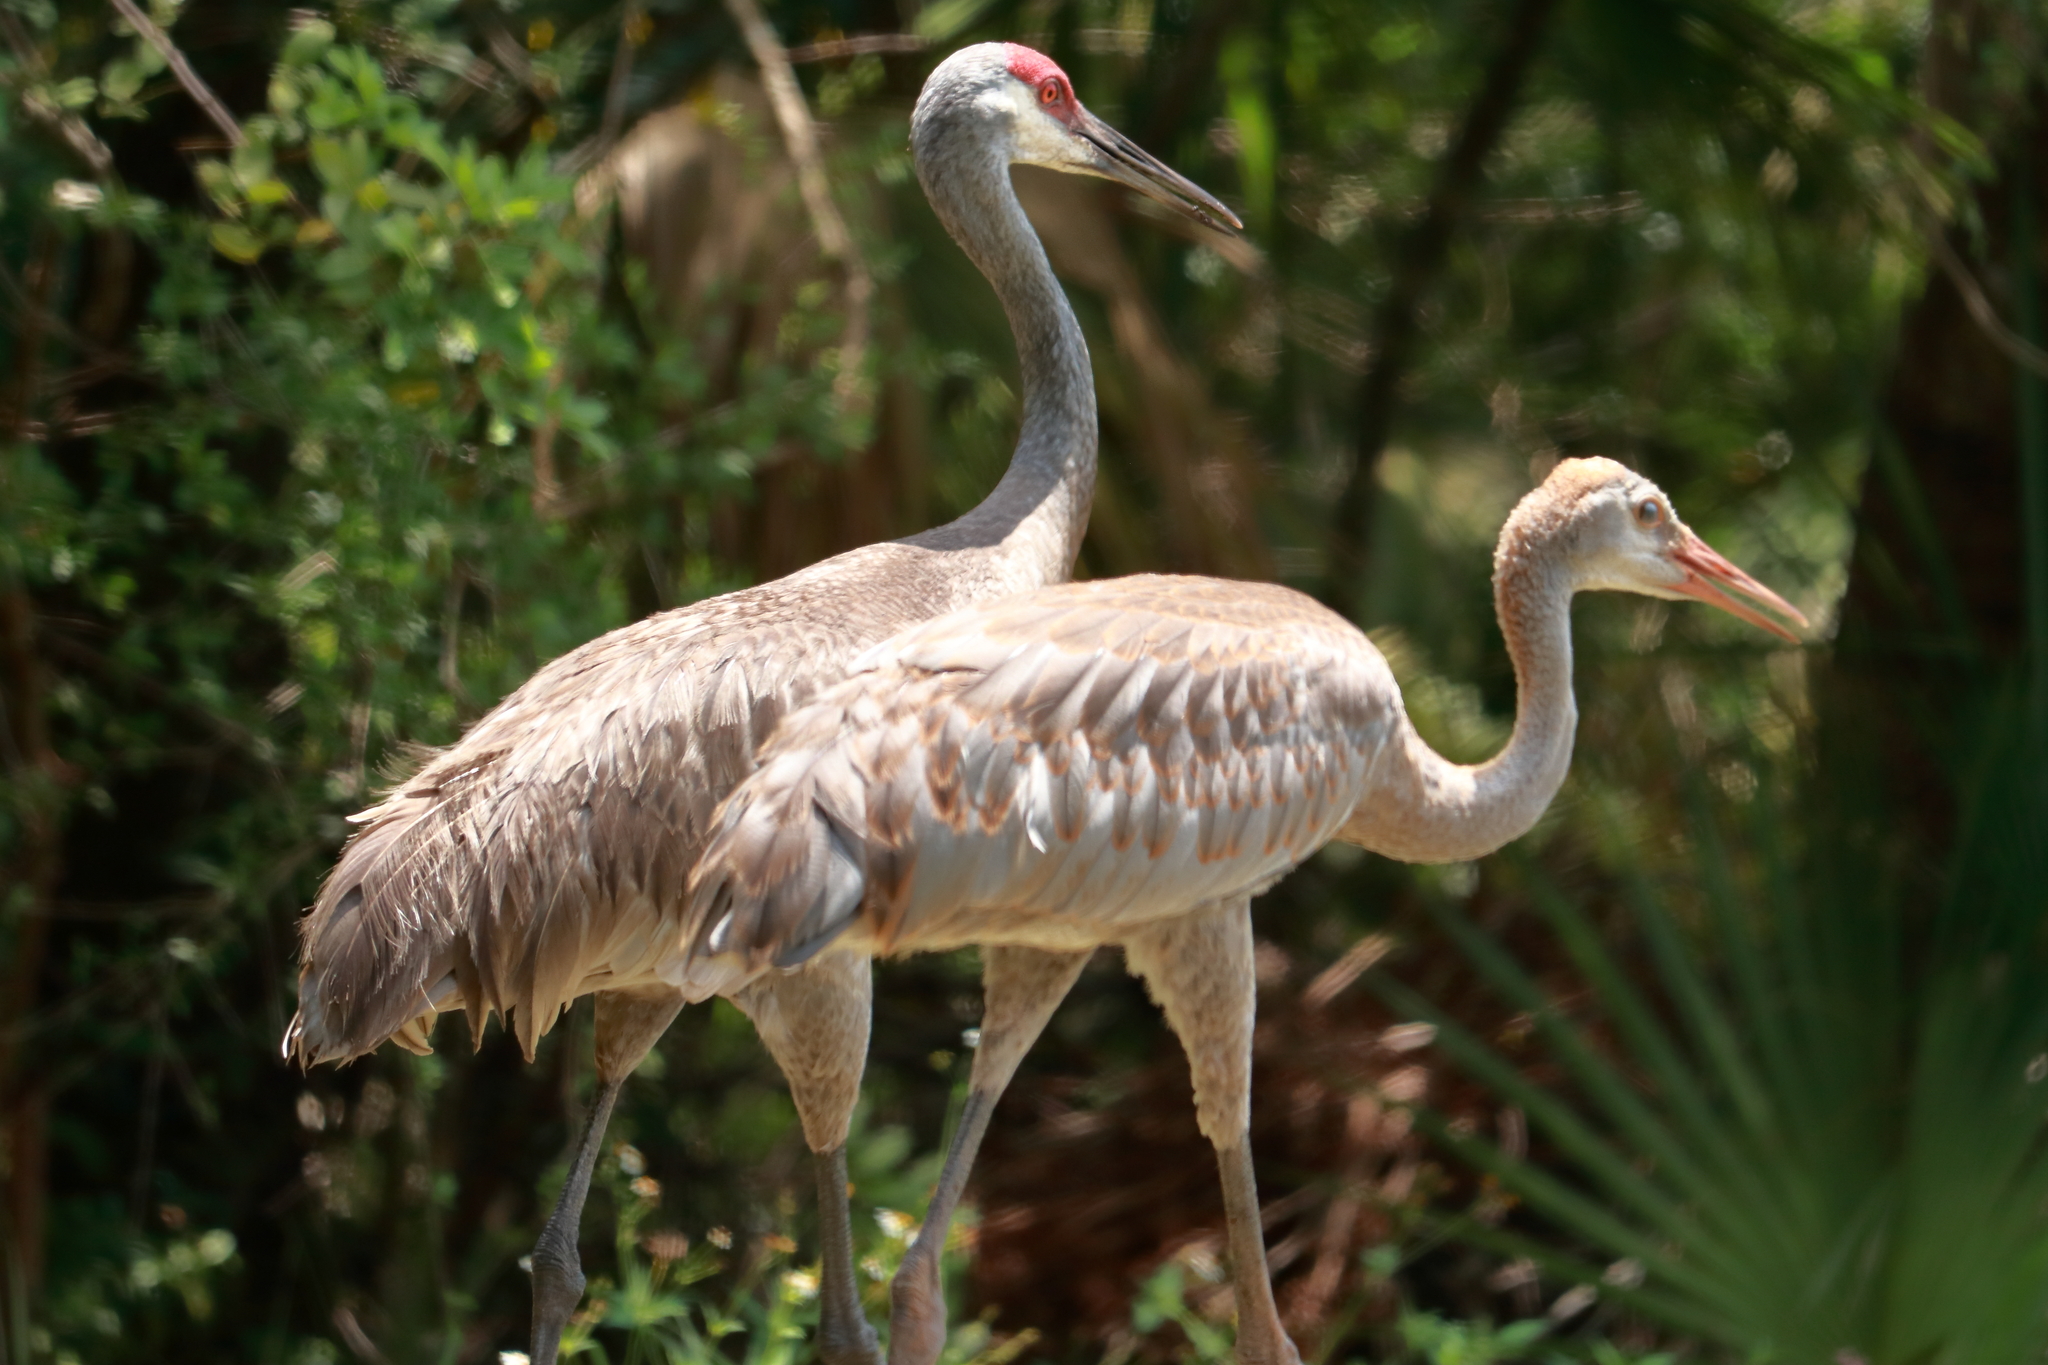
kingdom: Animalia
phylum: Chordata
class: Aves
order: Gruiformes
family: Gruidae
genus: Grus
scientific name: Grus canadensis
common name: Sandhill crane
